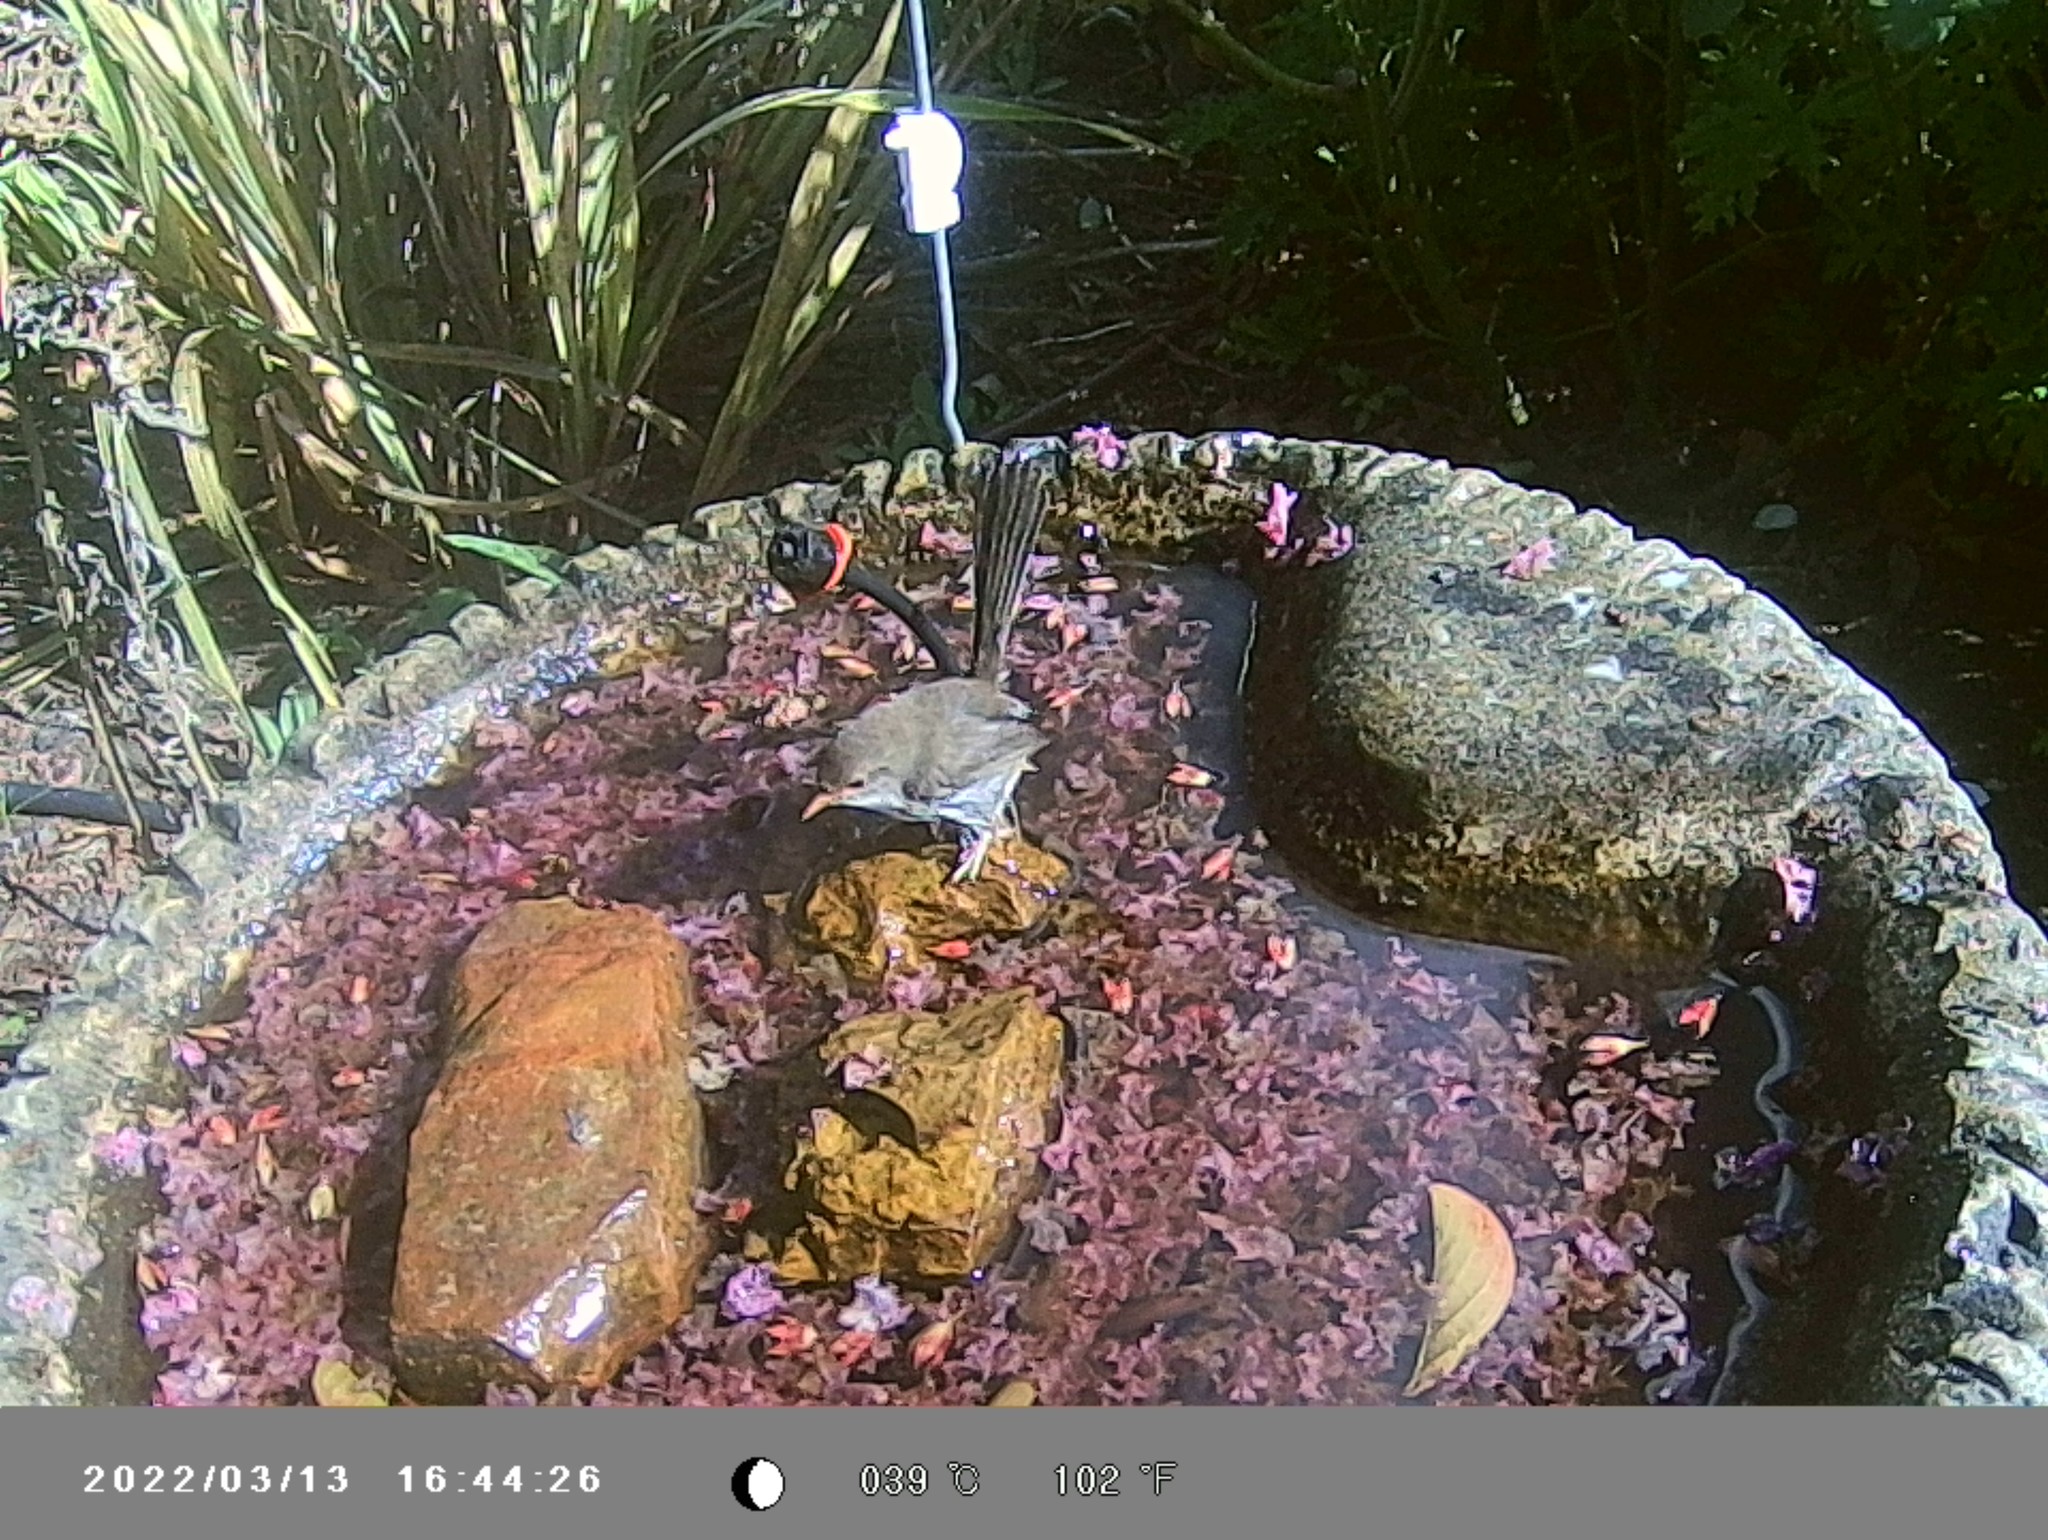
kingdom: Animalia
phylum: Chordata
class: Aves
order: Passeriformes
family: Maluridae
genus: Malurus
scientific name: Malurus cyaneus
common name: Superb fairywren
